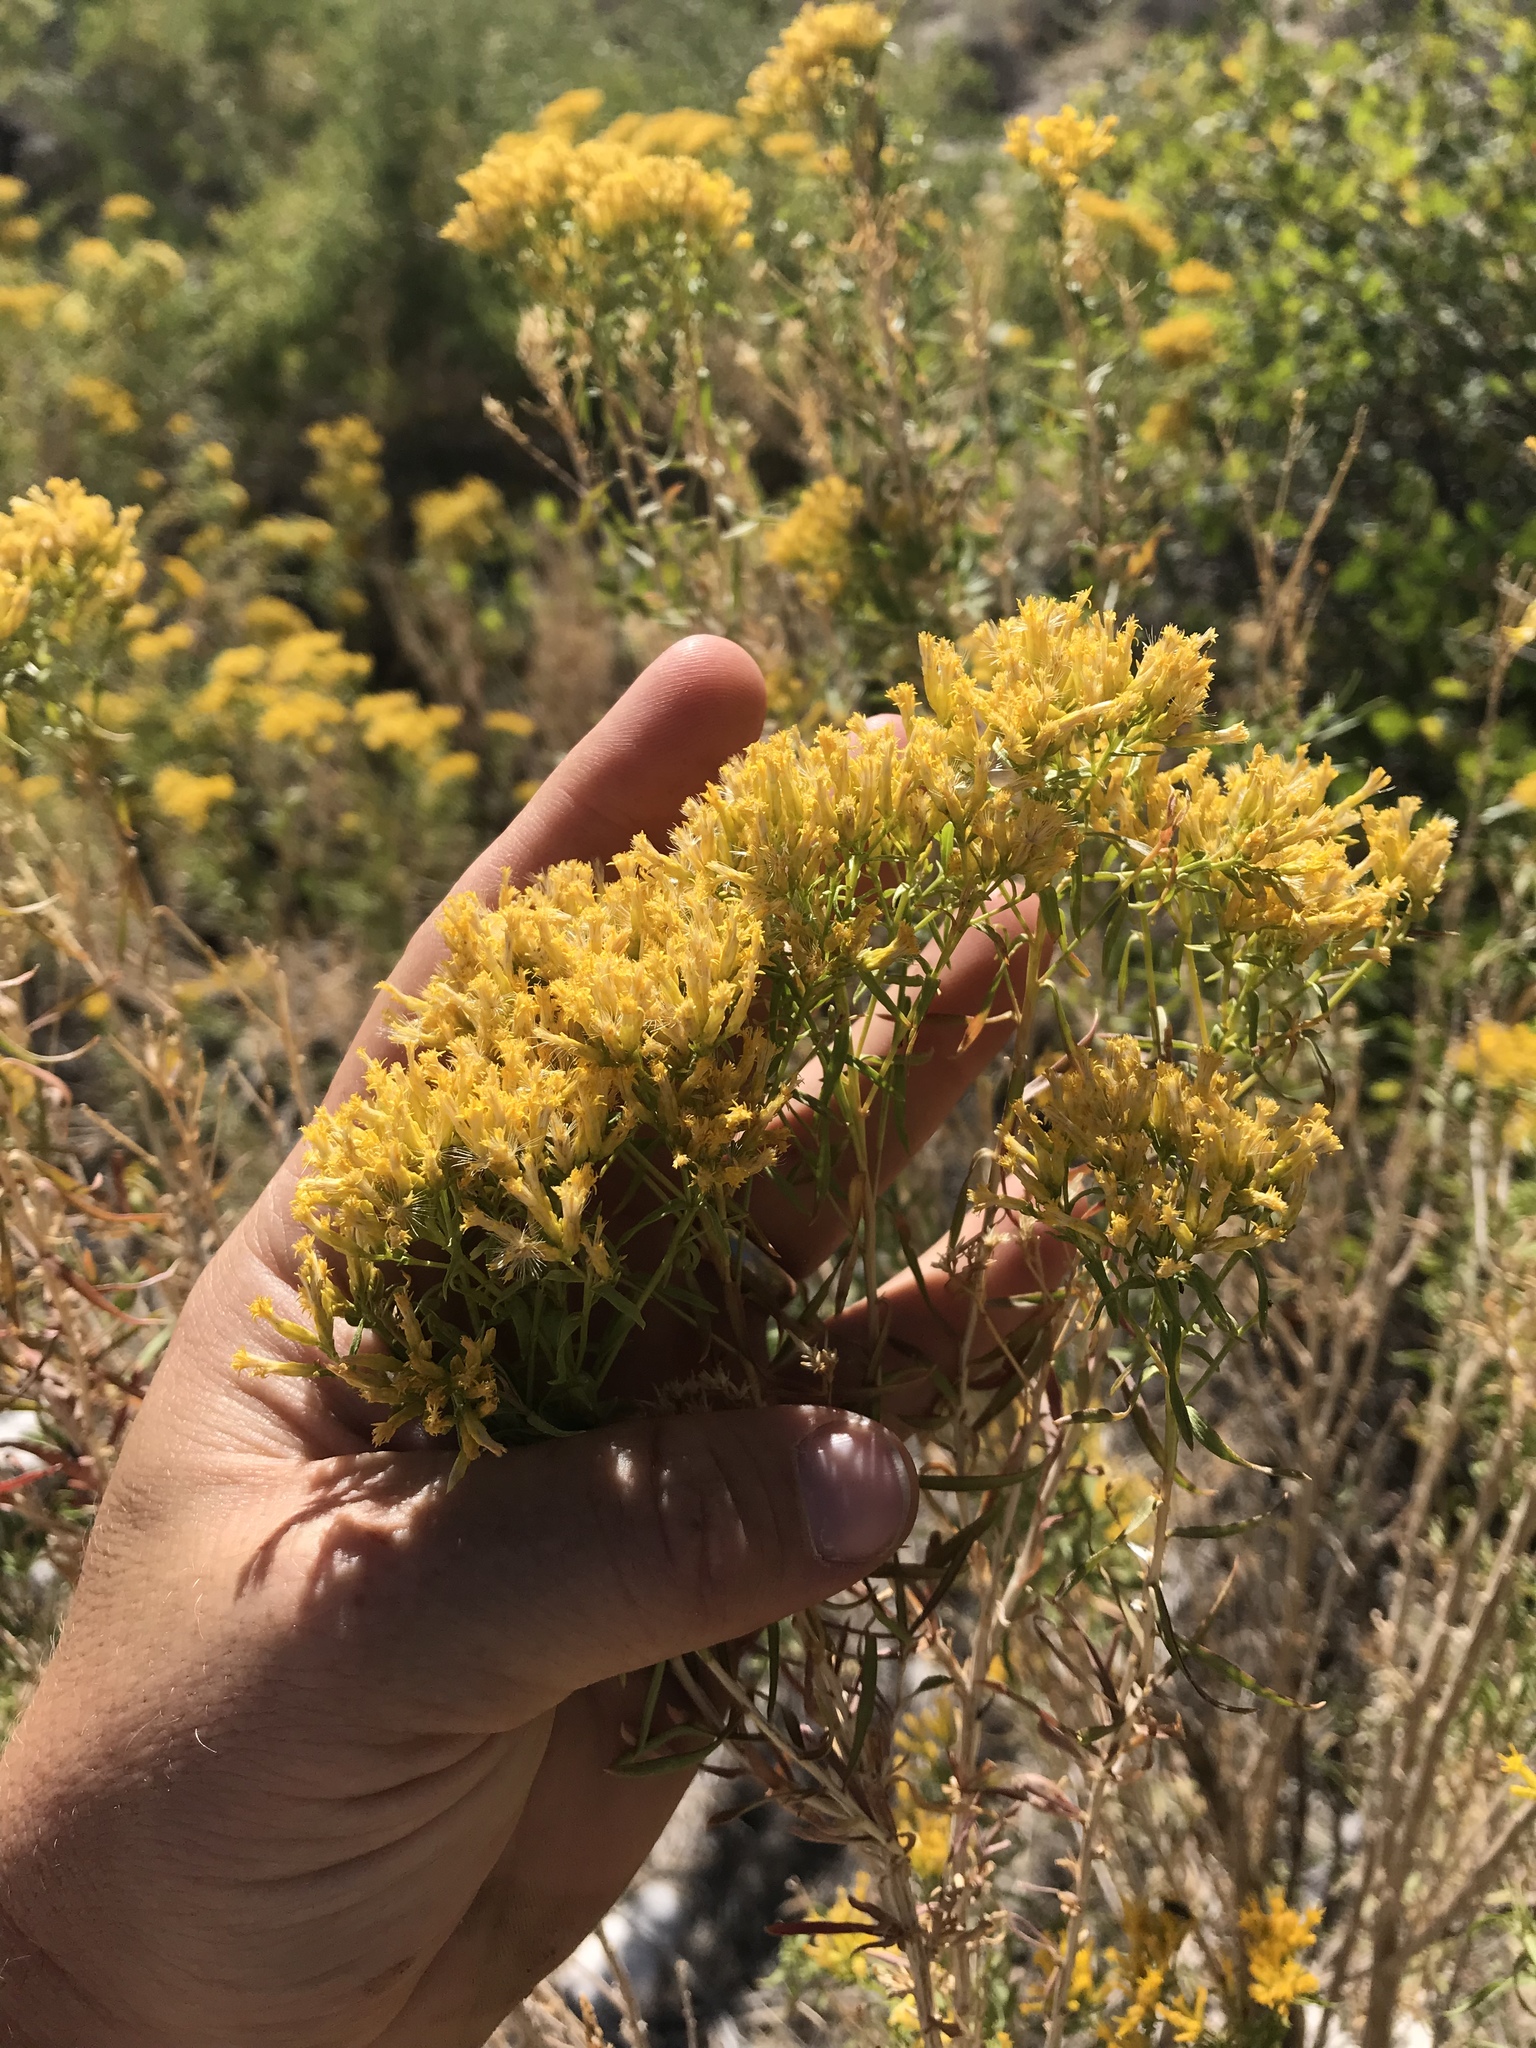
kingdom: Plantae
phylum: Tracheophyta
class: Magnoliopsida
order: Asterales
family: Asteraceae
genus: Chrysothamnus
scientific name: Chrysothamnus viscidiflorus
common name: Yellow rabbitbrush
